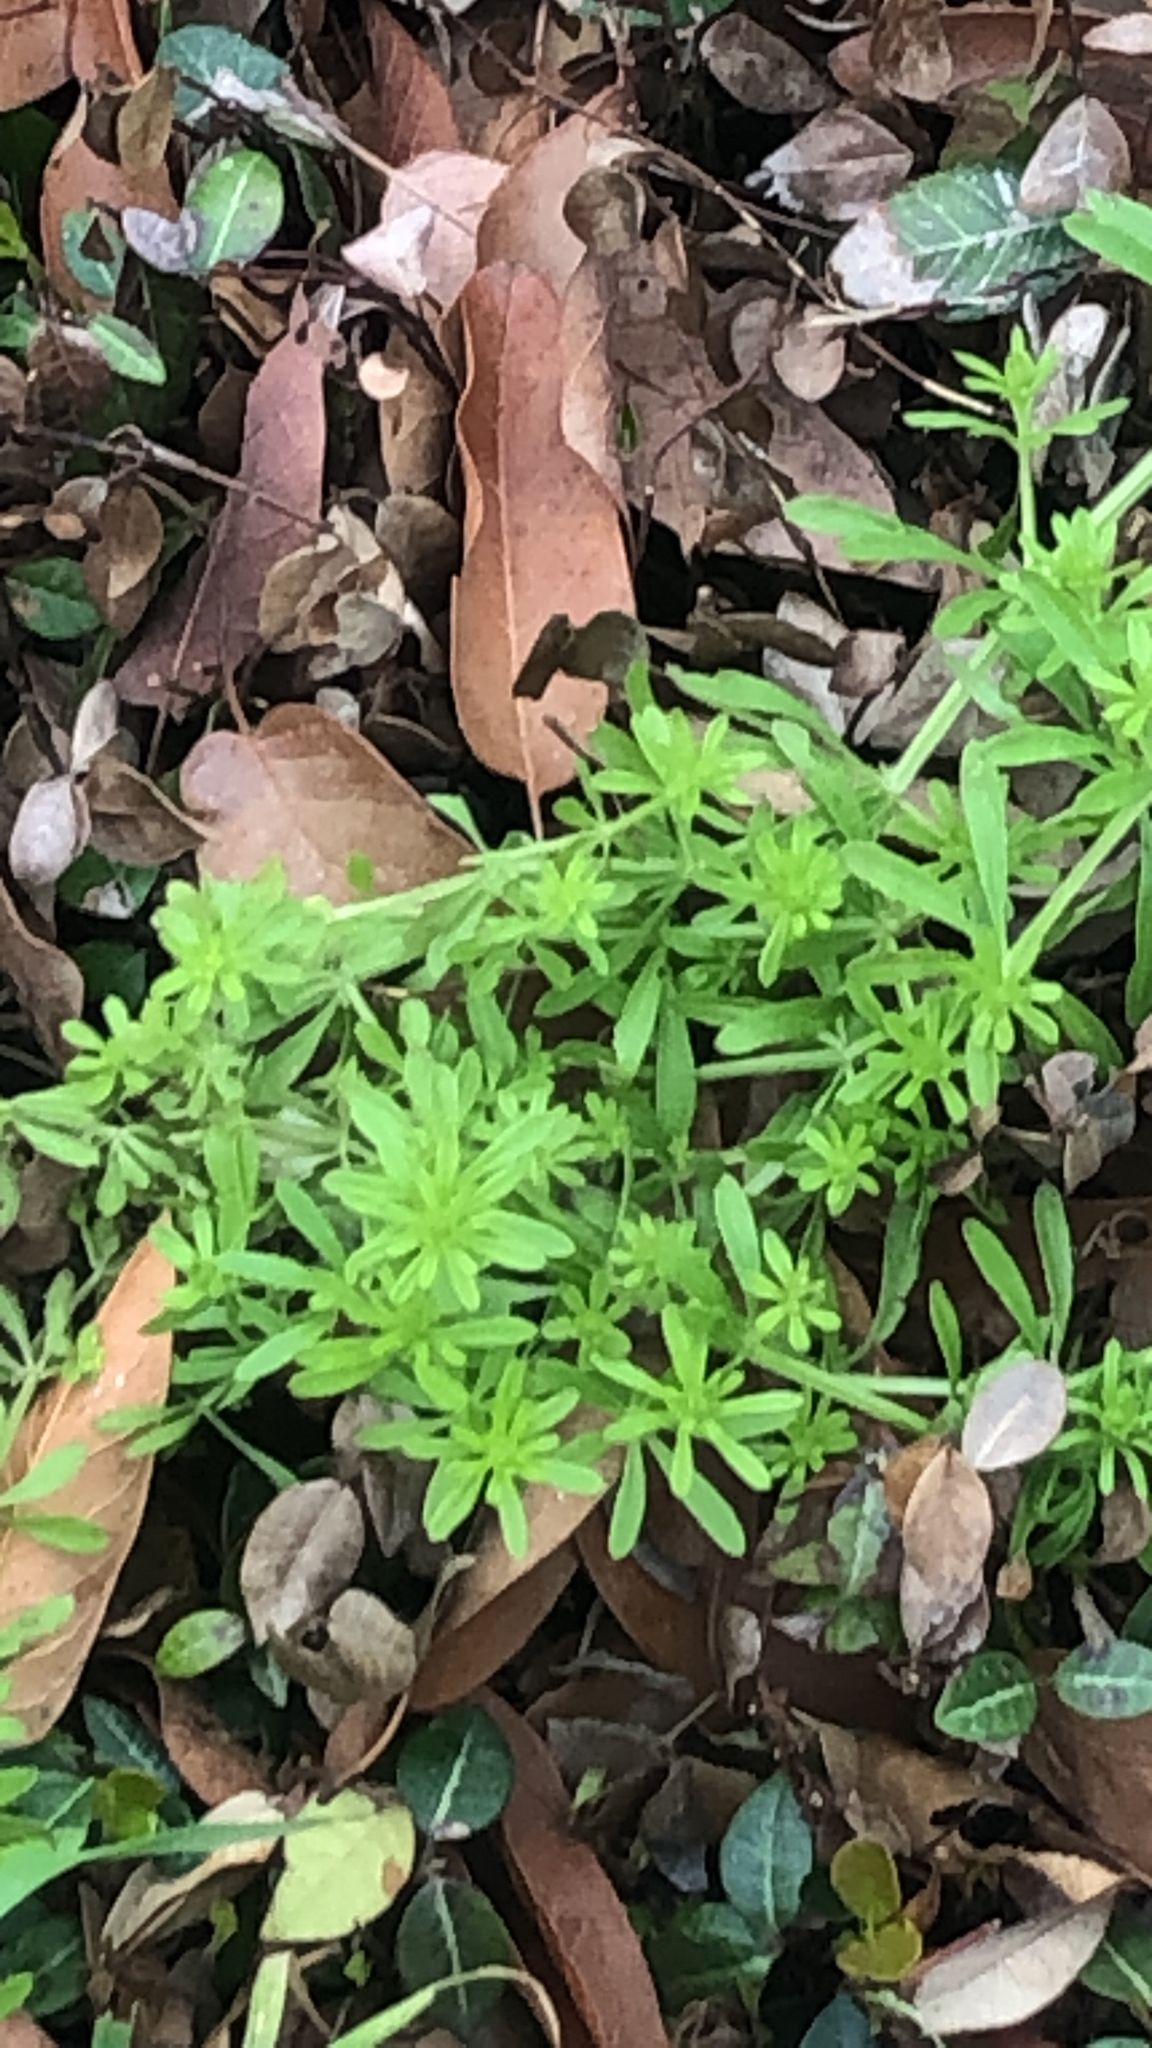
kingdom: Plantae
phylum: Tracheophyta
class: Magnoliopsida
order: Gentianales
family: Rubiaceae
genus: Galium
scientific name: Galium aparine
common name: Cleavers
